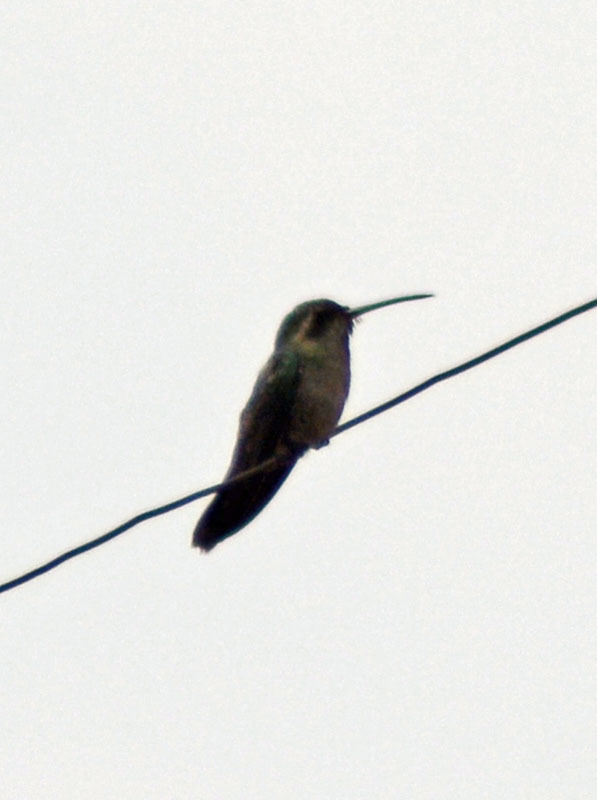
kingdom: Animalia
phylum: Chordata
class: Aves
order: Apodiformes
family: Trochilidae
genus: Cynanthus
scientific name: Cynanthus latirostris
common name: Broad-billed hummingbird
